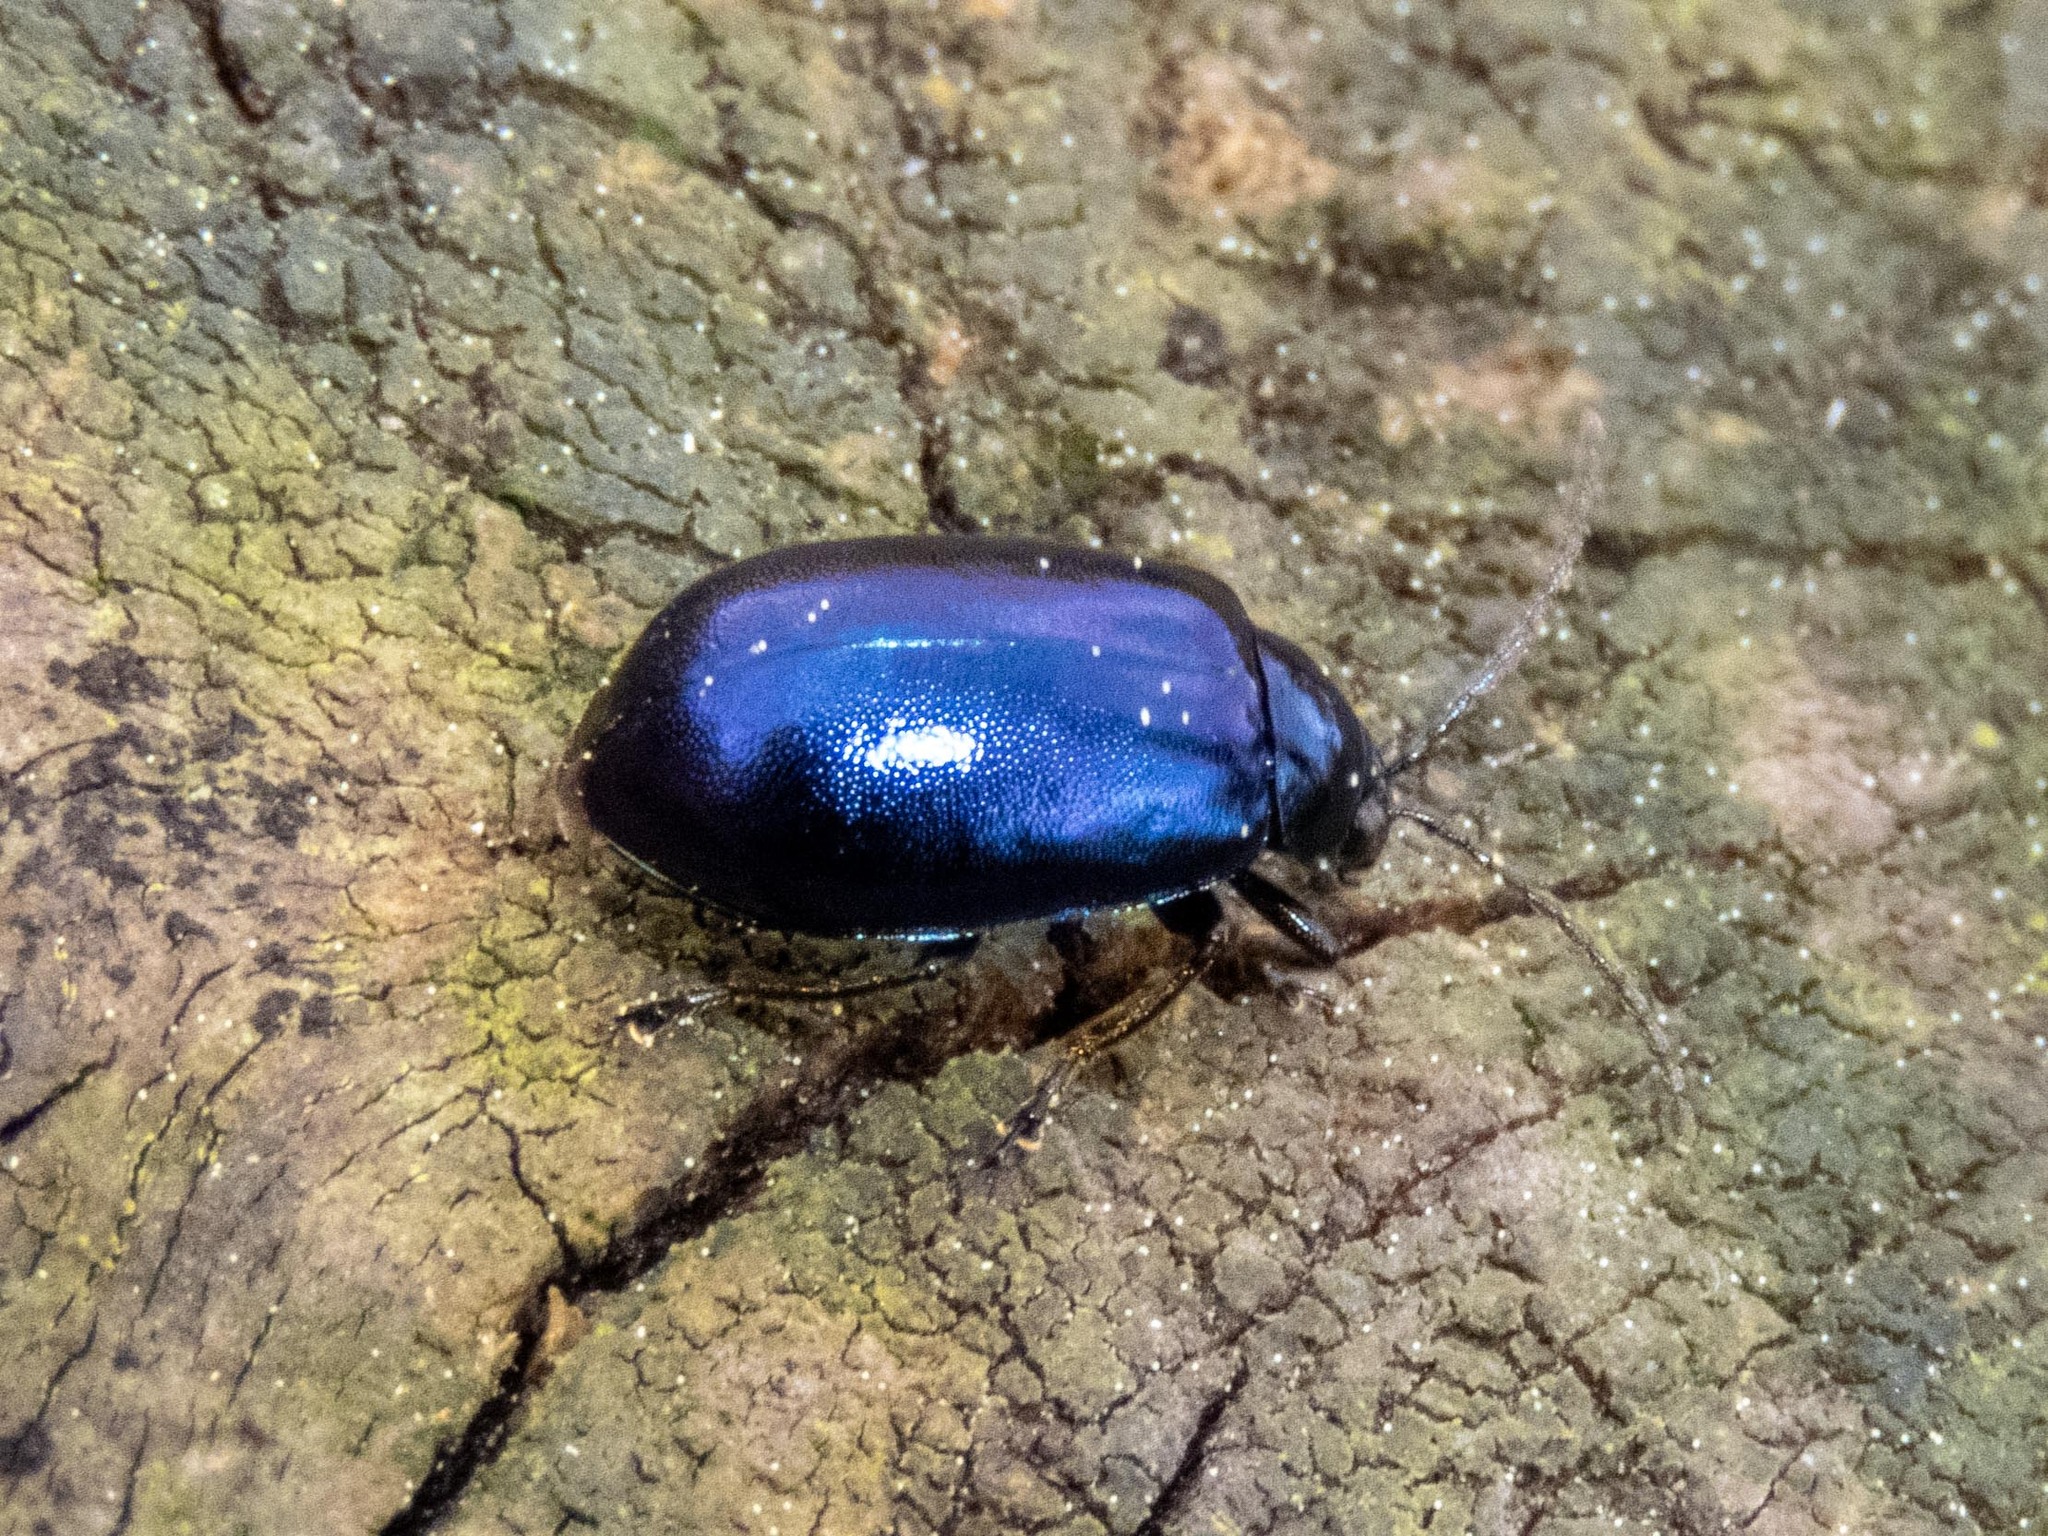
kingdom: Animalia
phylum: Arthropoda
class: Insecta
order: Coleoptera
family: Chrysomelidae
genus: Agelastica
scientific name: Agelastica alni
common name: Alder leaf beetle
